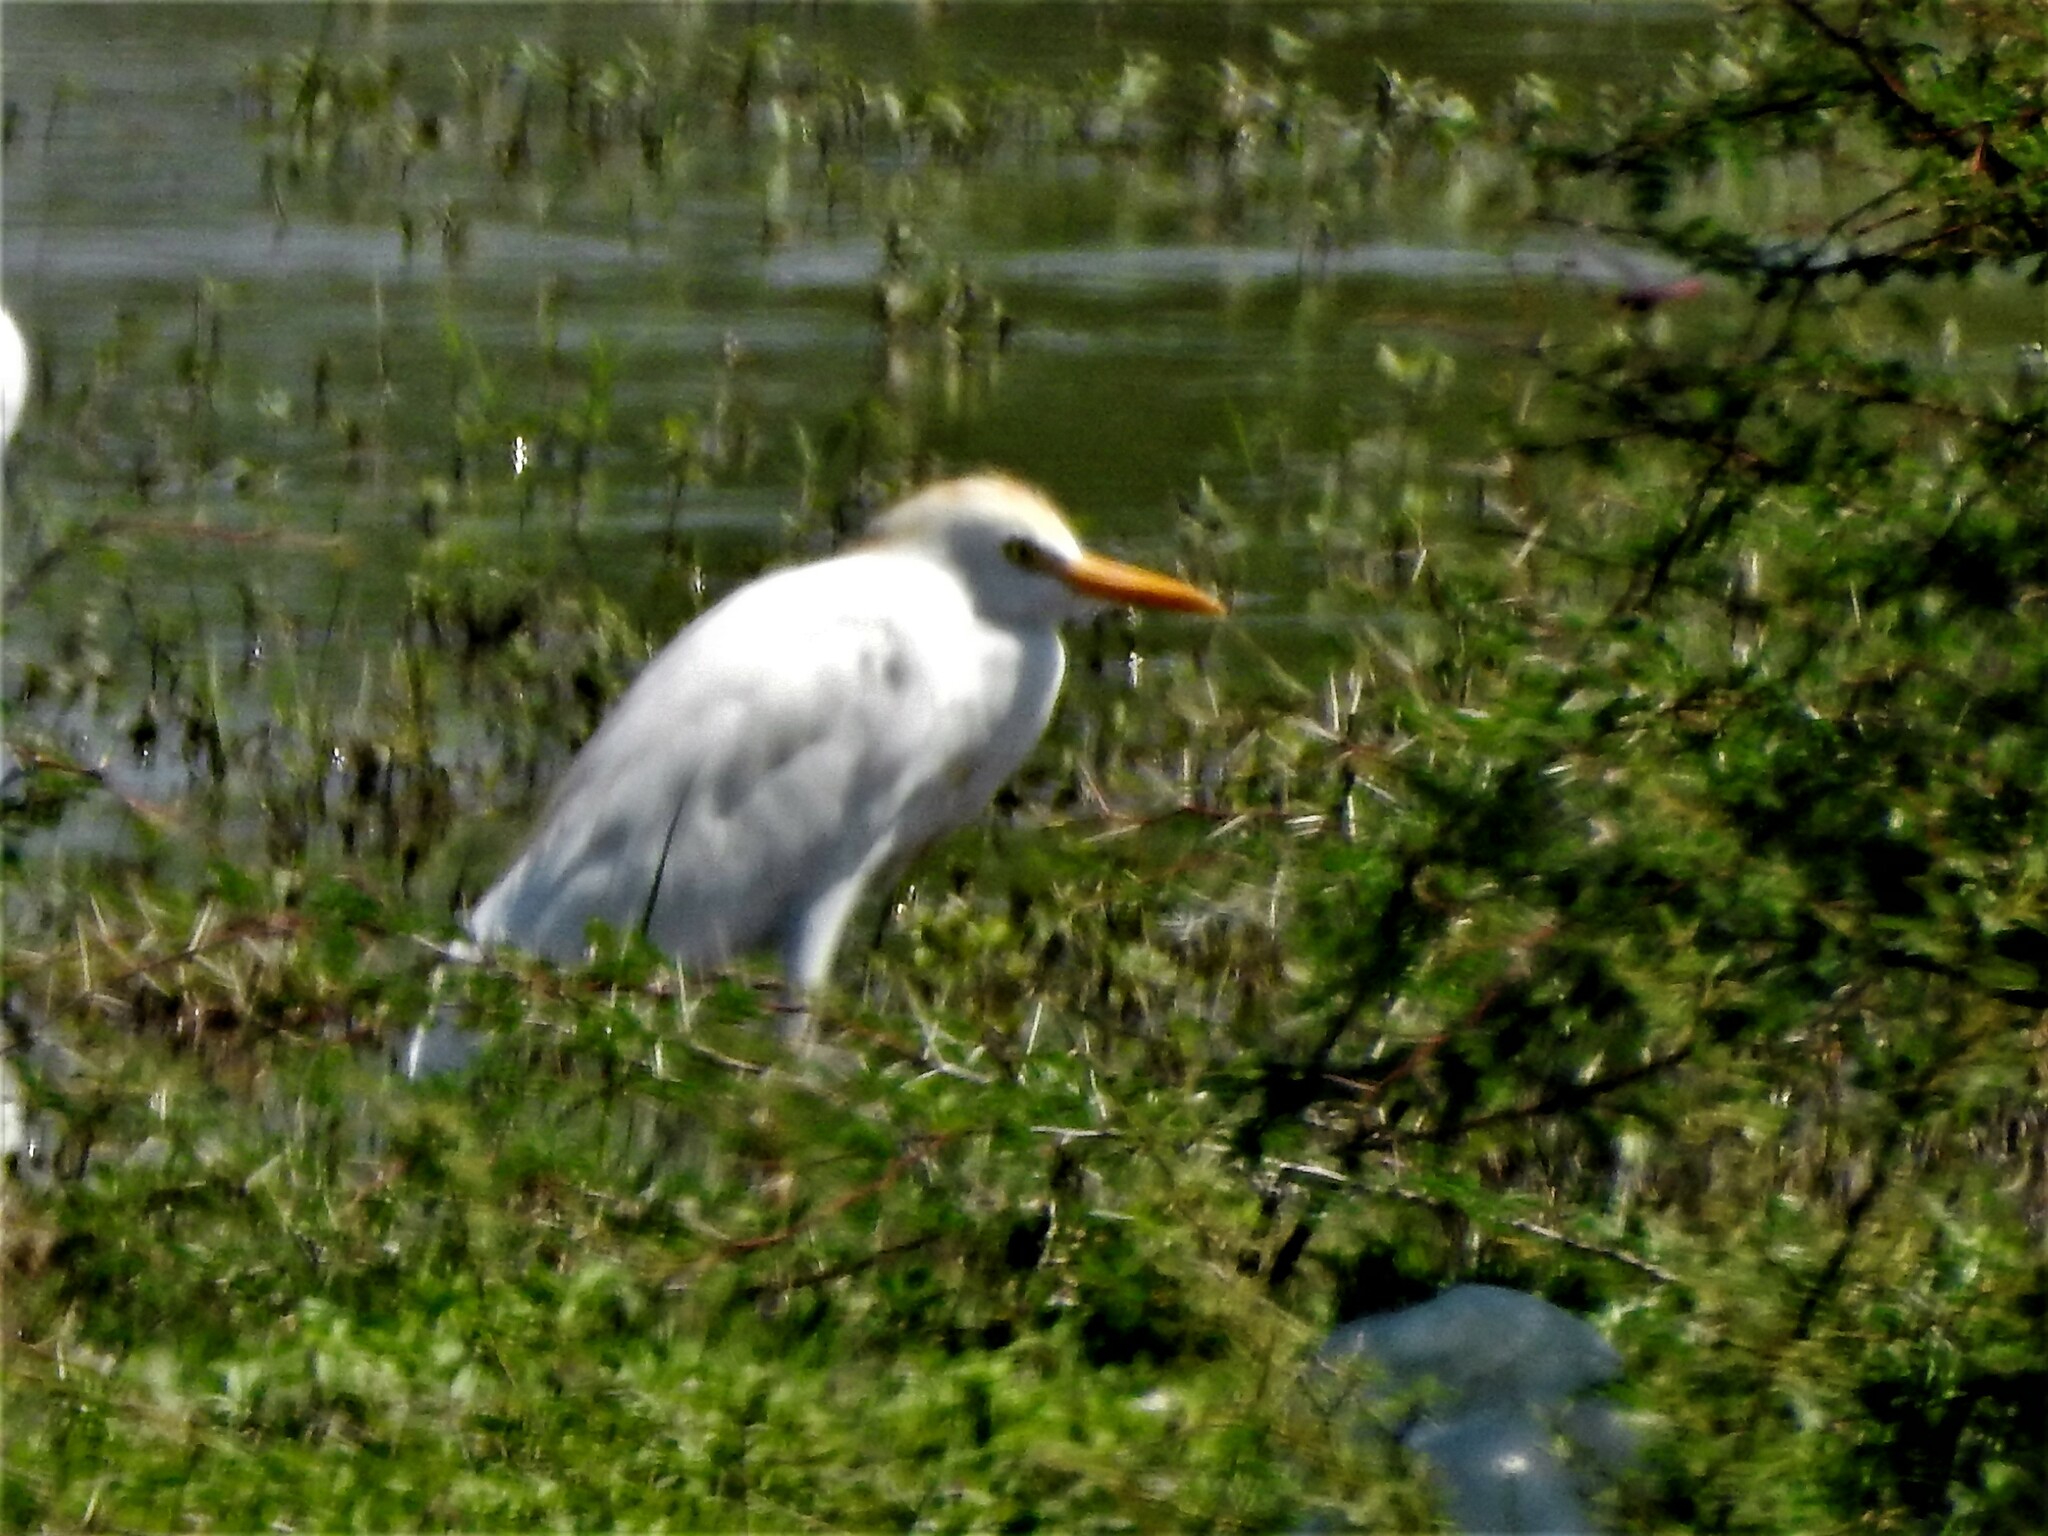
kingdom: Animalia
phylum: Chordata
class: Aves
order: Pelecaniformes
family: Ardeidae
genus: Bubulcus
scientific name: Bubulcus ibis
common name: Cattle egret
